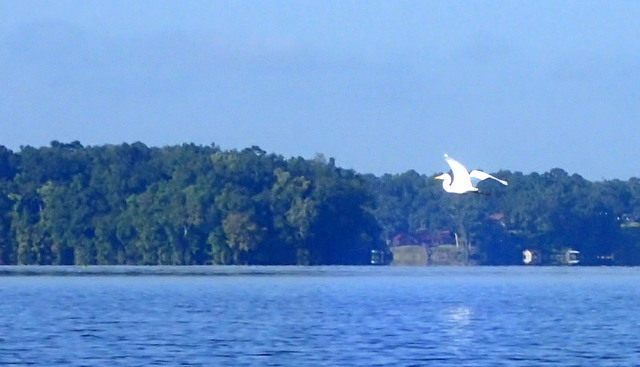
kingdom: Animalia
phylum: Chordata
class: Aves
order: Pelecaniformes
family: Ardeidae
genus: Ardea
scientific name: Ardea alba
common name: Great egret
